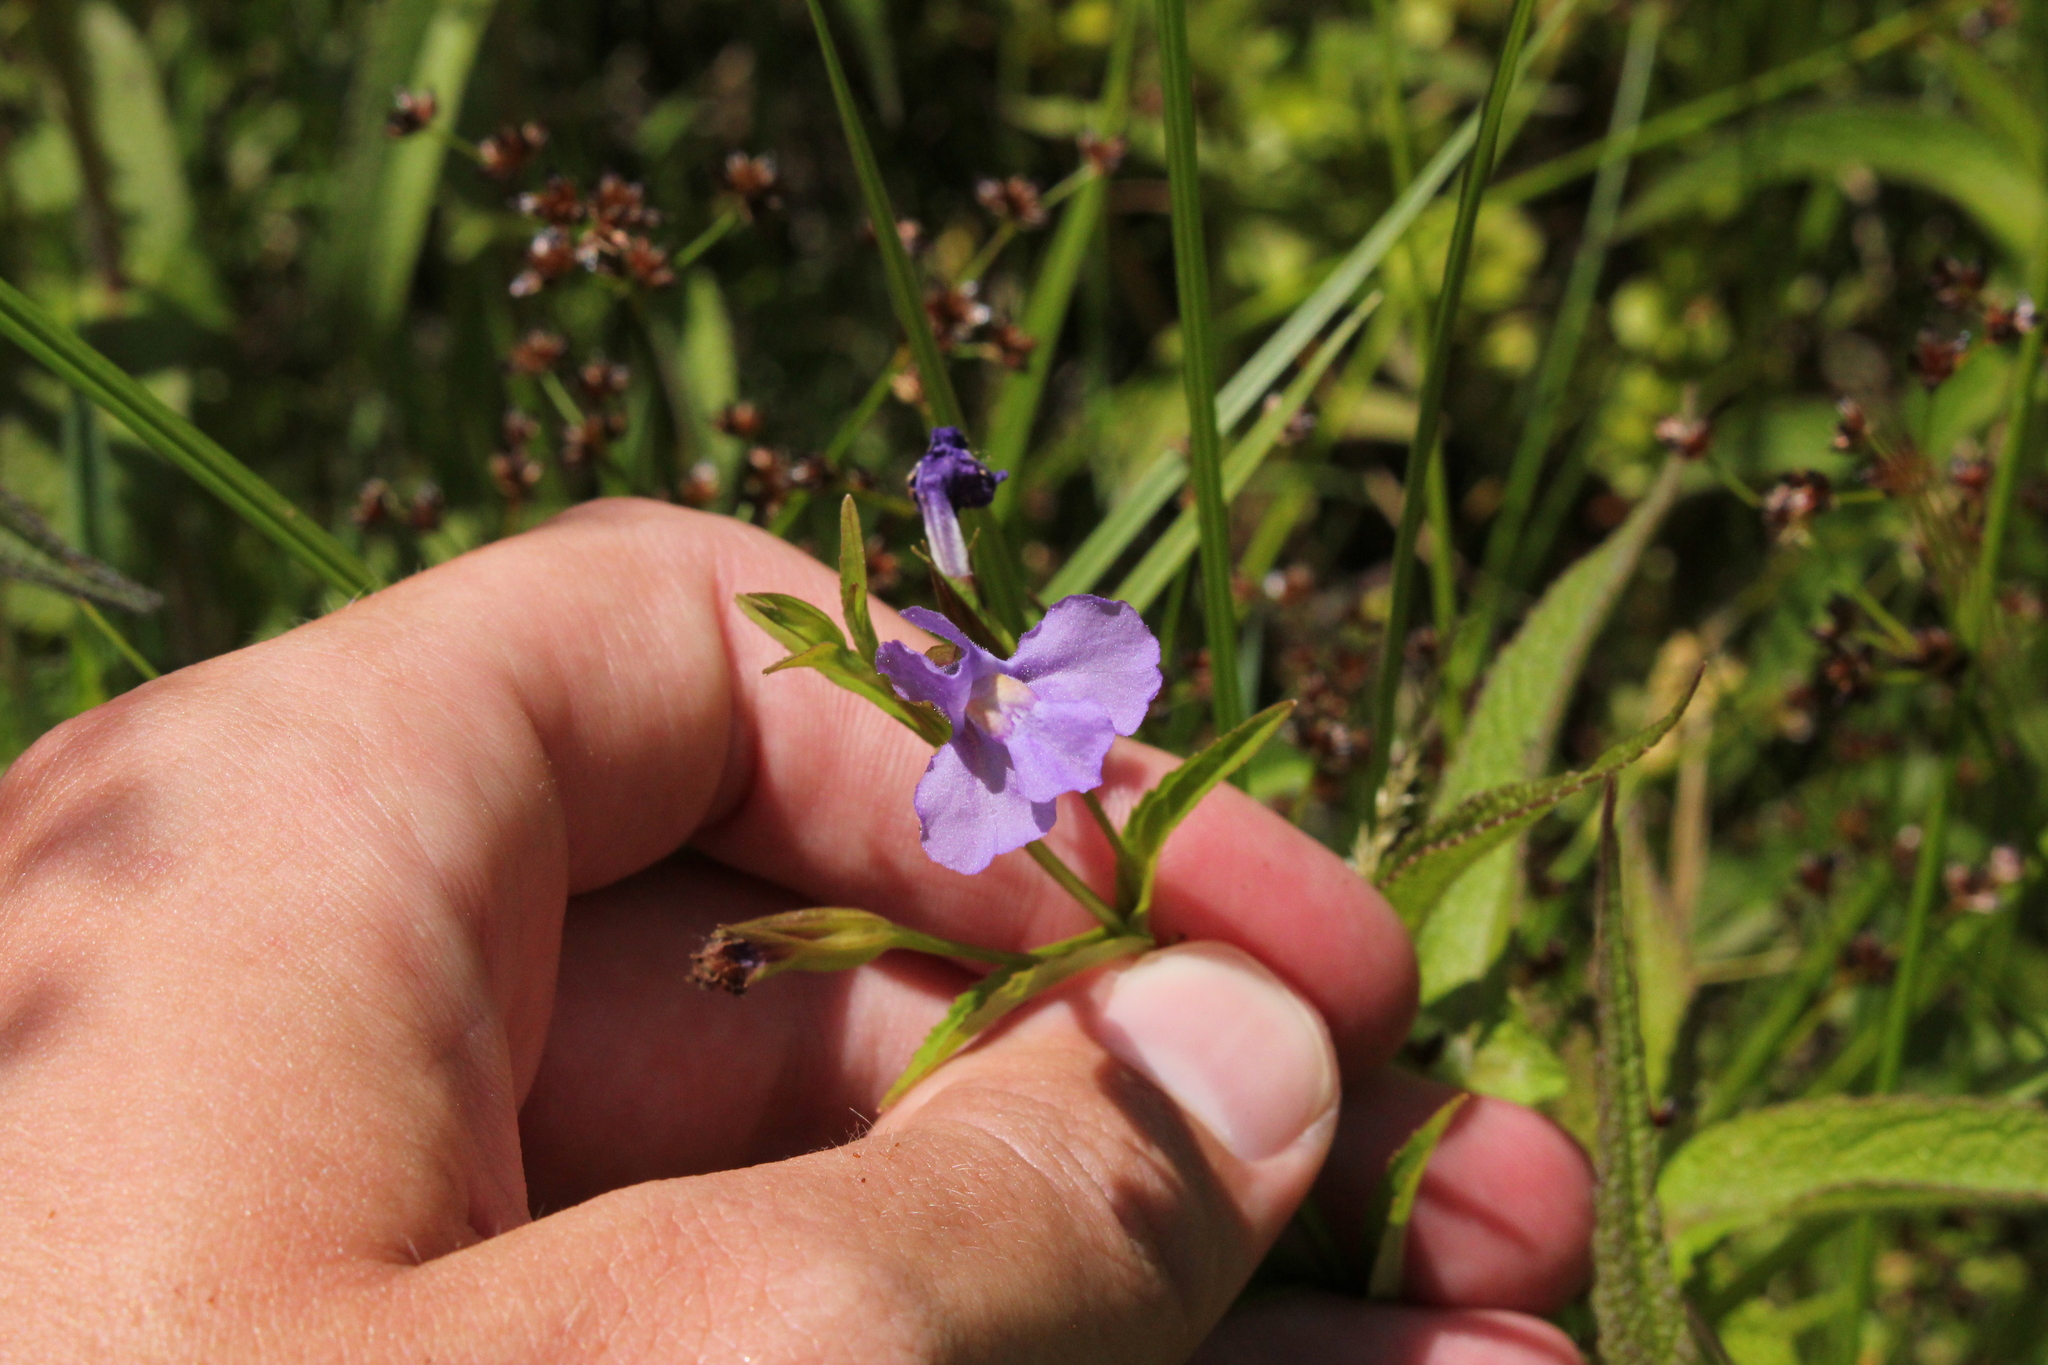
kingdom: Plantae
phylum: Tracheophyta
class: Magnoliopsida
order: Lamiales
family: Phrymaceae
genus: Mimulus
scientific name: Mimulus ringens
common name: Allegheny monkeyflower
